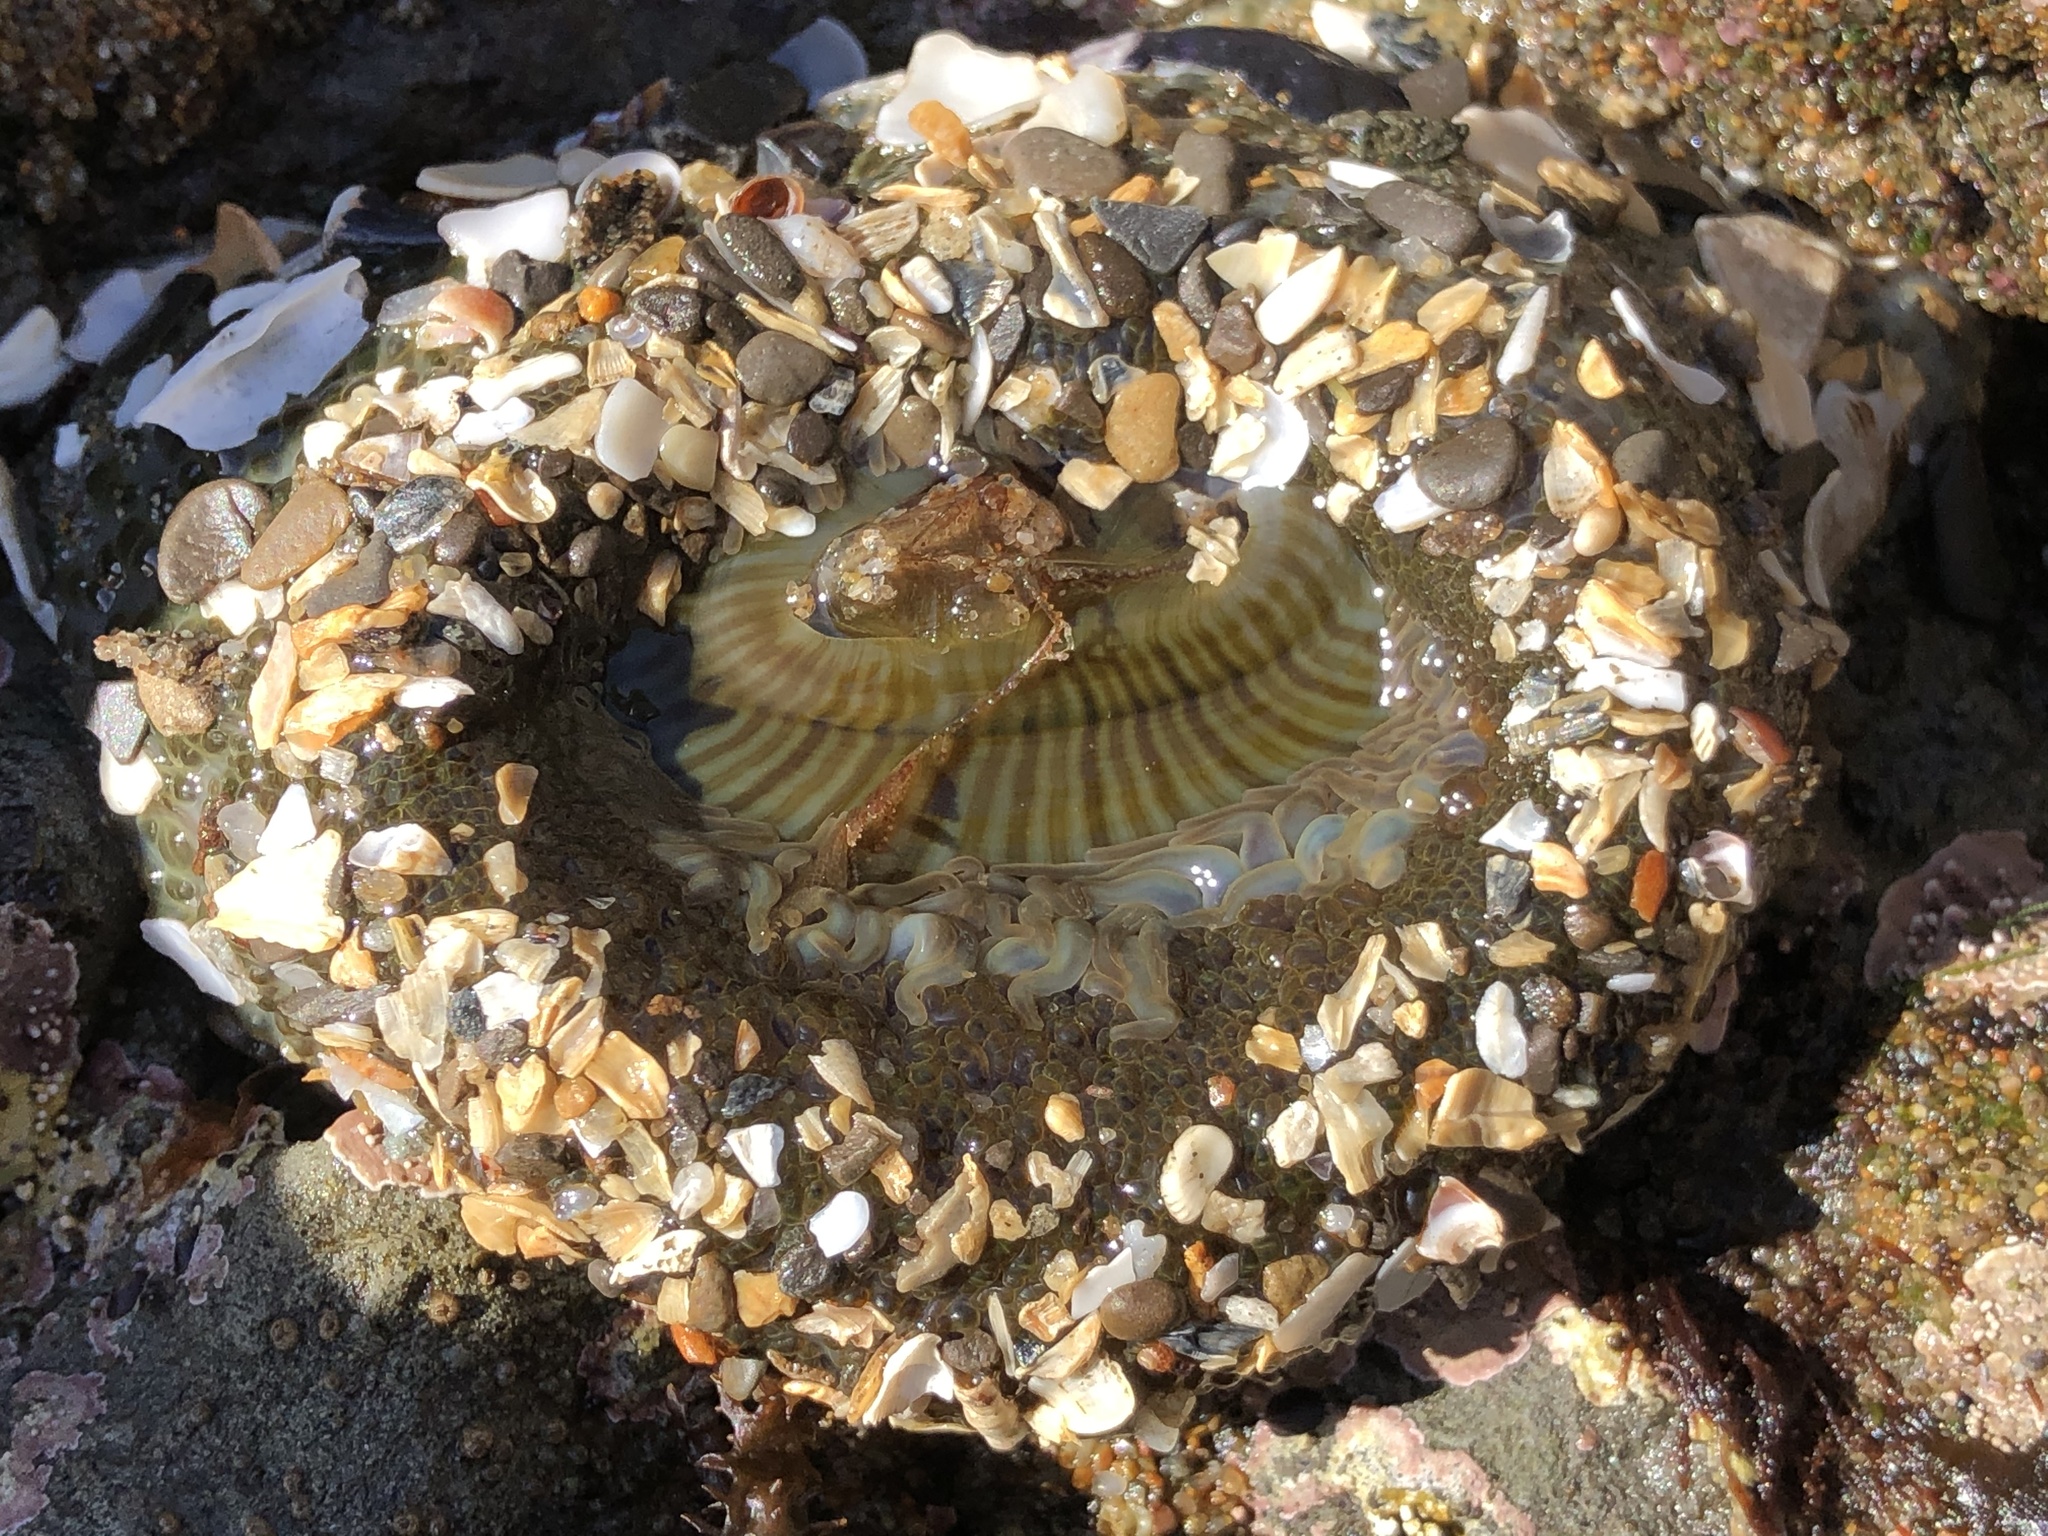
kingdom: Animalia
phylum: Cnidaria
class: Anthozoa
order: Actiniaria
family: Actiniidae
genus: Anthopleura
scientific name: Anthopleura sola
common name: Sun anemone
